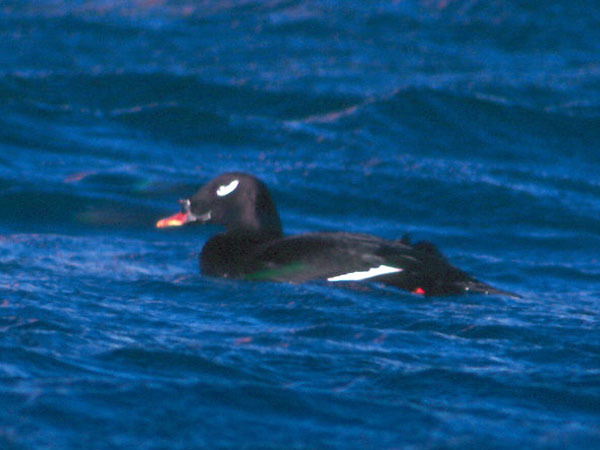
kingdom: Animalia
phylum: Chordata
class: Aves
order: Anseriformes
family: Anatidae
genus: Melanitta
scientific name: Melanitta stejnegeri
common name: Stejneger's scoter
